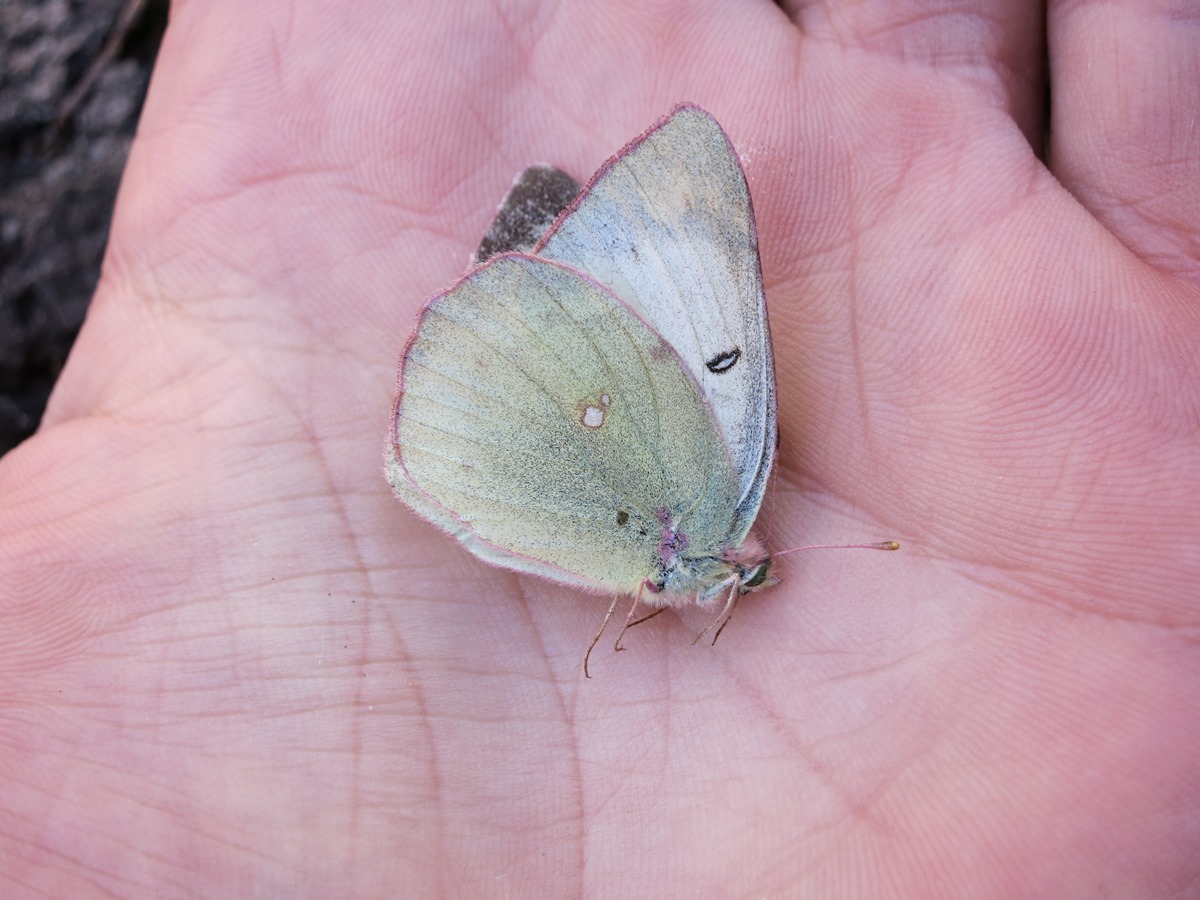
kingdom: Animalia
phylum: Arthropoda
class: Insecta
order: Lepidoptera
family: Pieridae
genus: Colias
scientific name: Colias eurytheme
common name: Alfalfa butterfly
